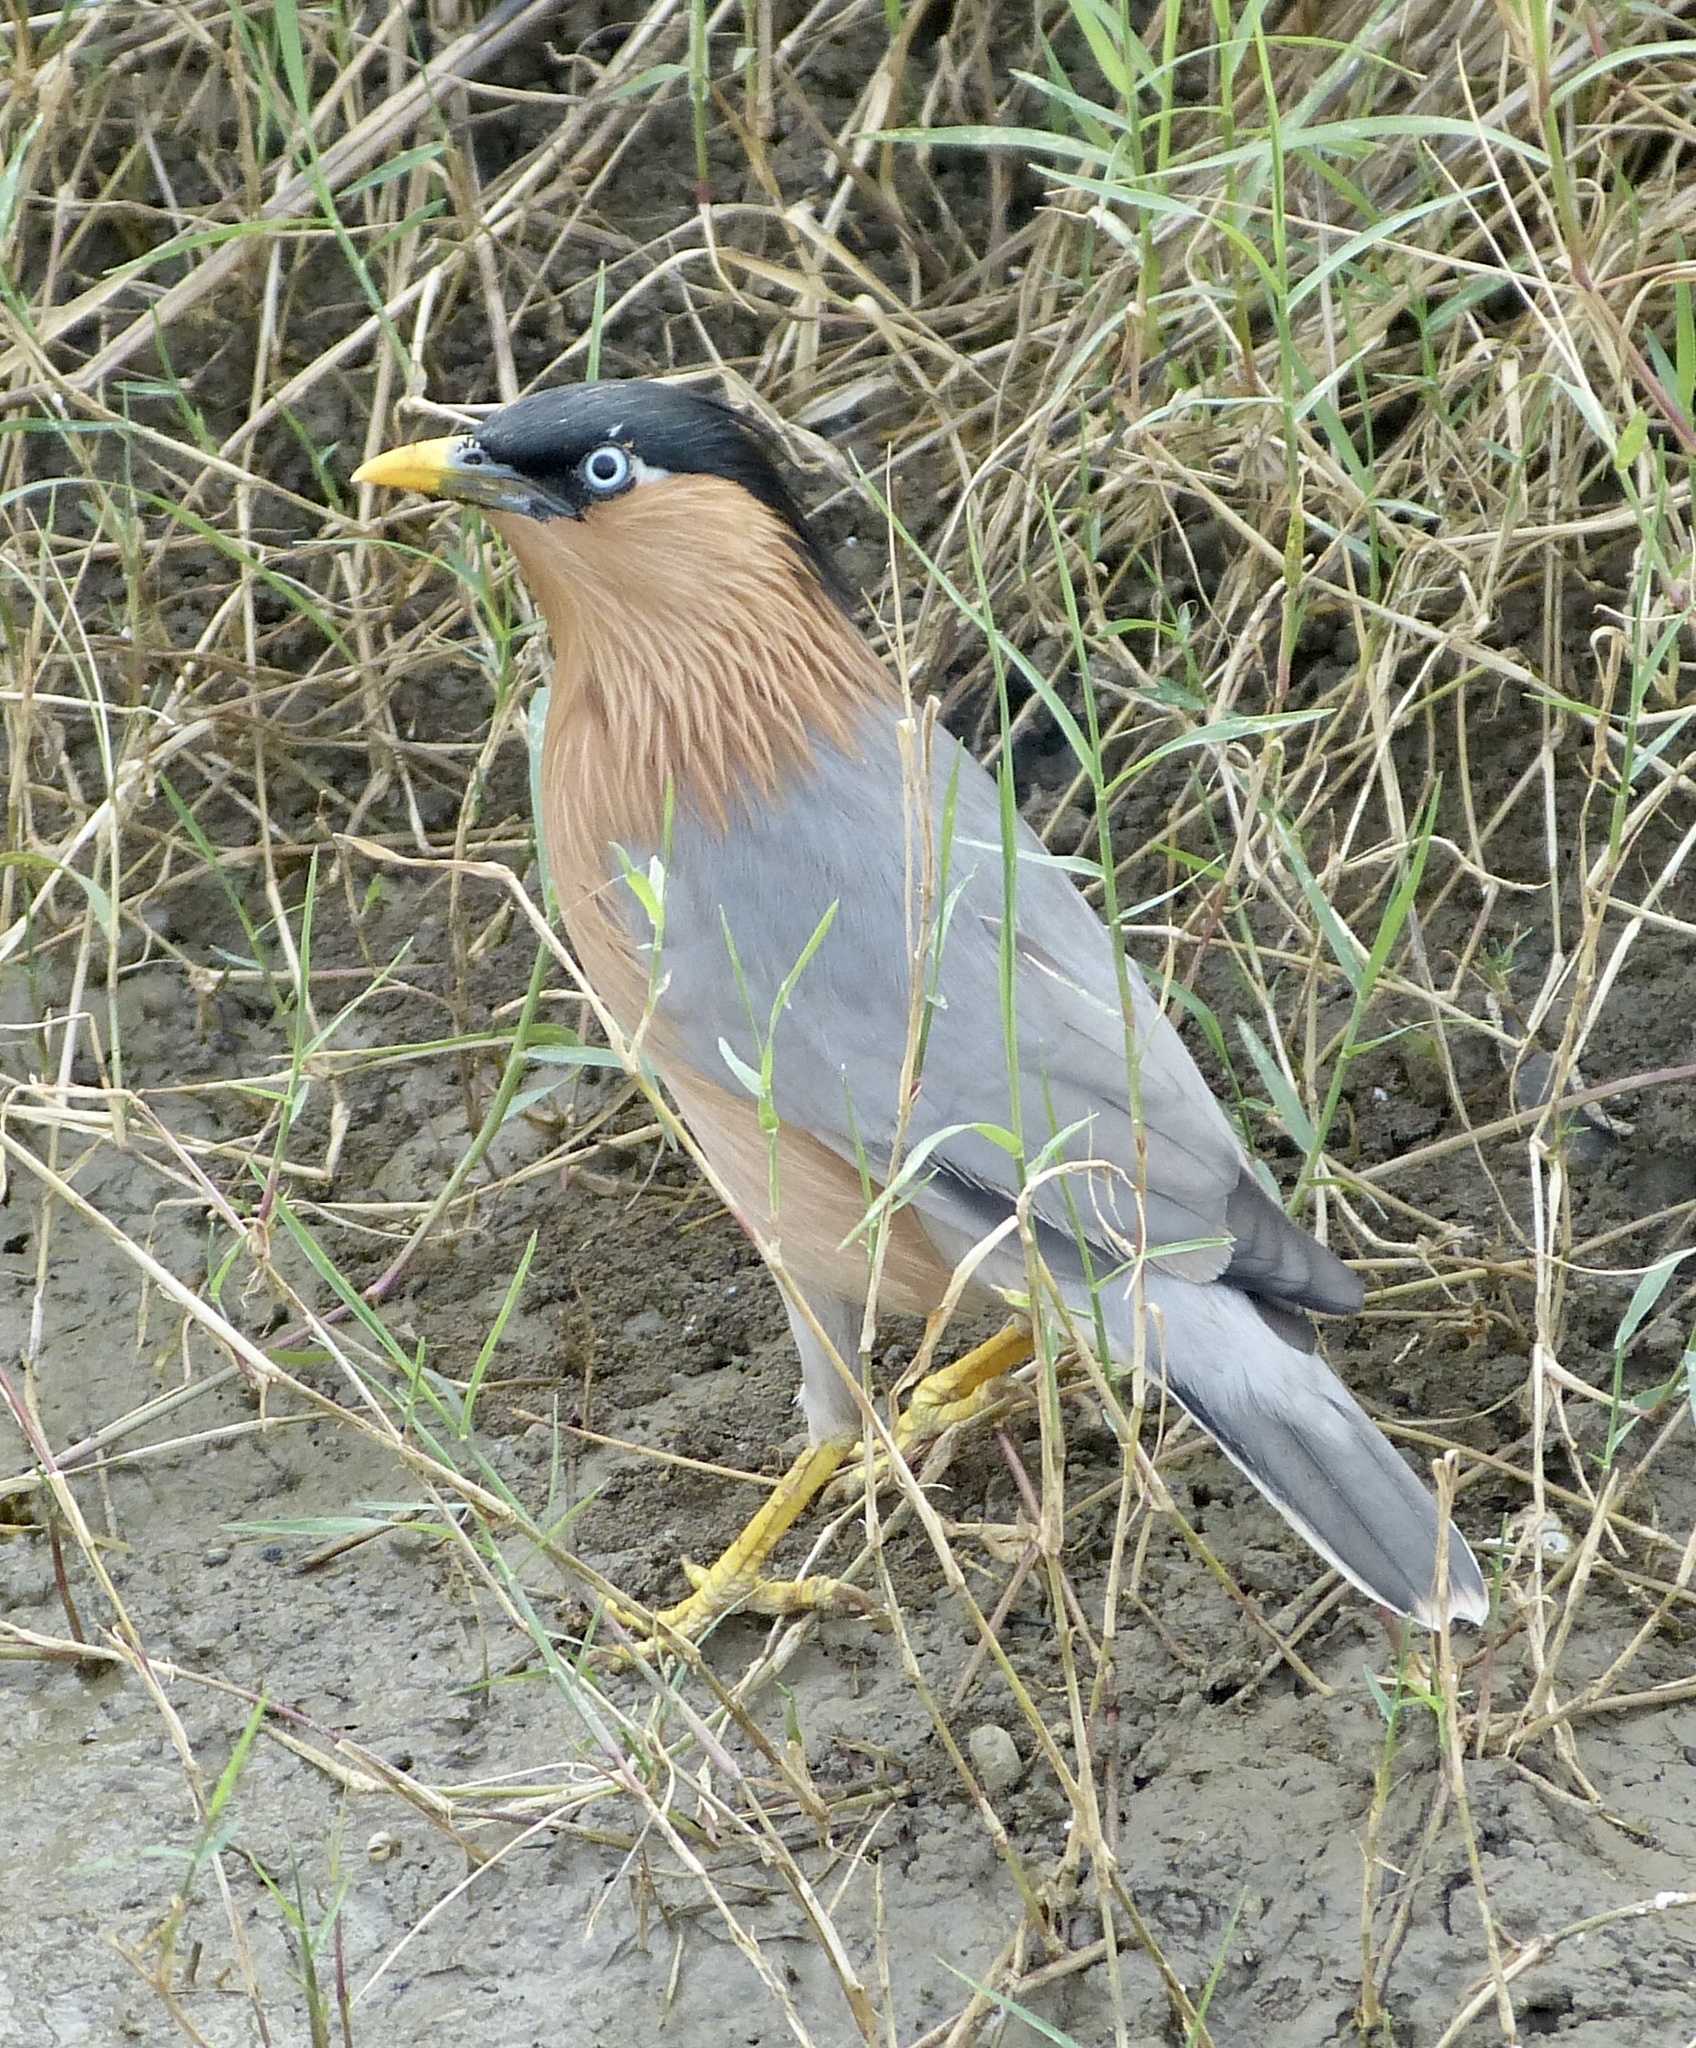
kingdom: Animalia
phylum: Chordata
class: Aves
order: Passeriformes
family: Sturnidae
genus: Sturnia
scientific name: Sturnia pagodarum
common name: Brahminy starling
